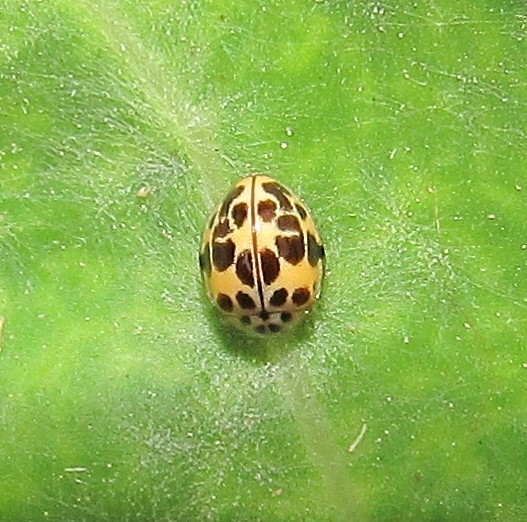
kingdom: Animalia
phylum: Arthropoda
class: Insecta
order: Coleoptera
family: Coccinellidae
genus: Psyllobora
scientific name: Psyllobora
